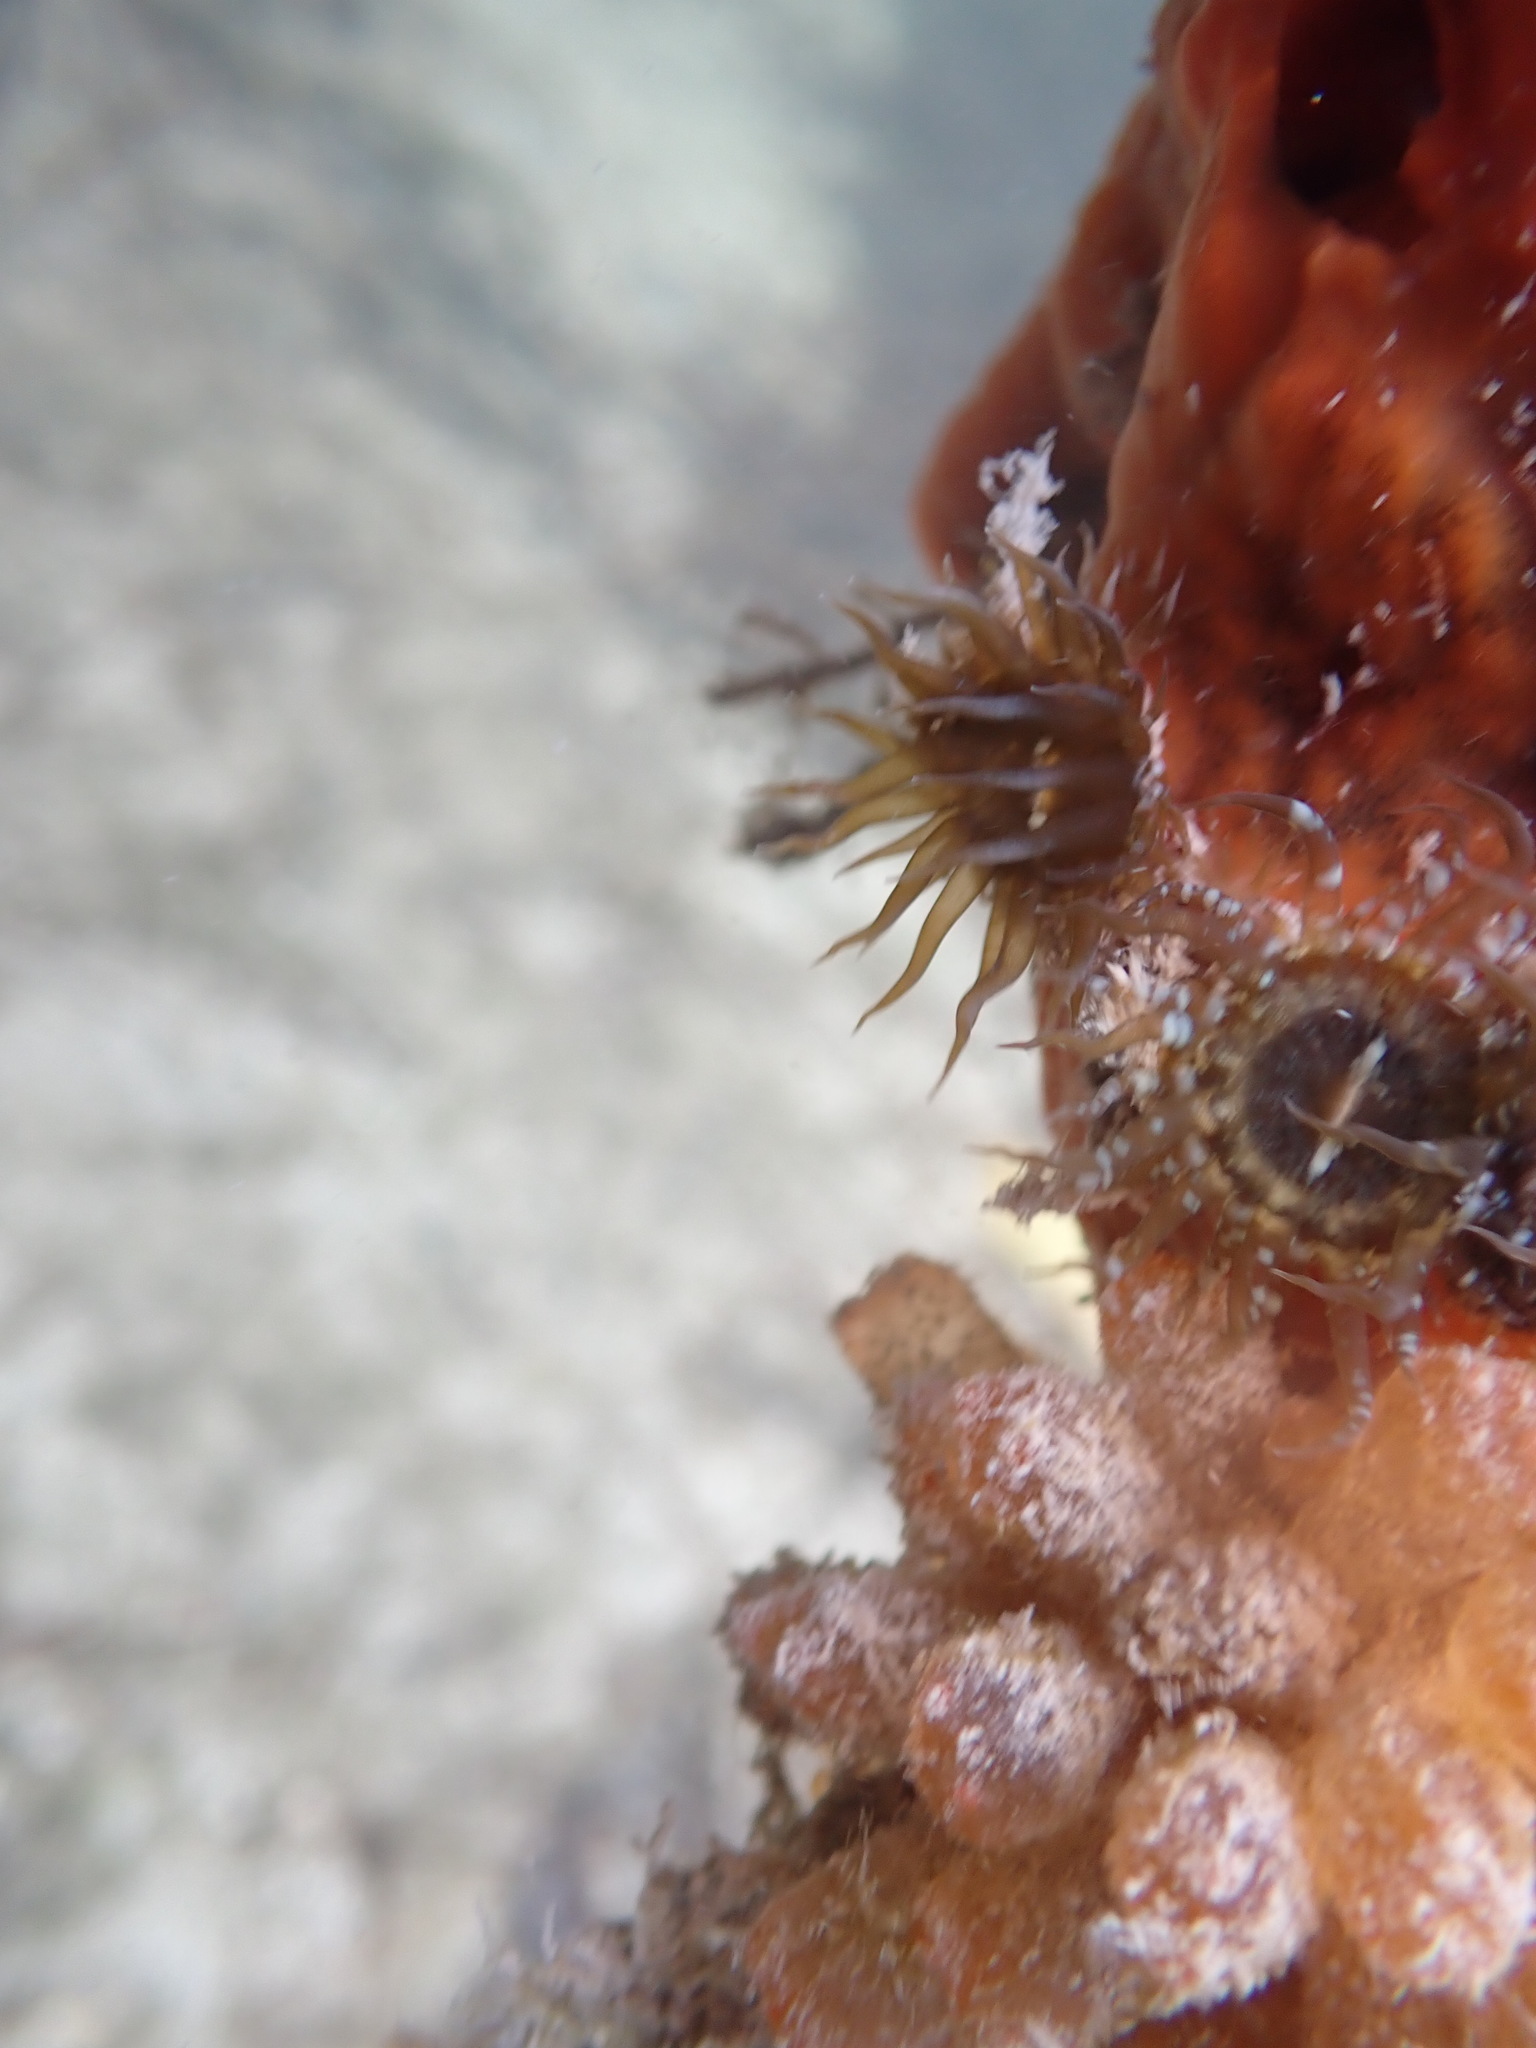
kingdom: Animalia
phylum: Cnidaria
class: Anthozoa
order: Actiniaria
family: Aiptasiidae
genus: Exaiptasia
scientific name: Exaiptasia diaphana
